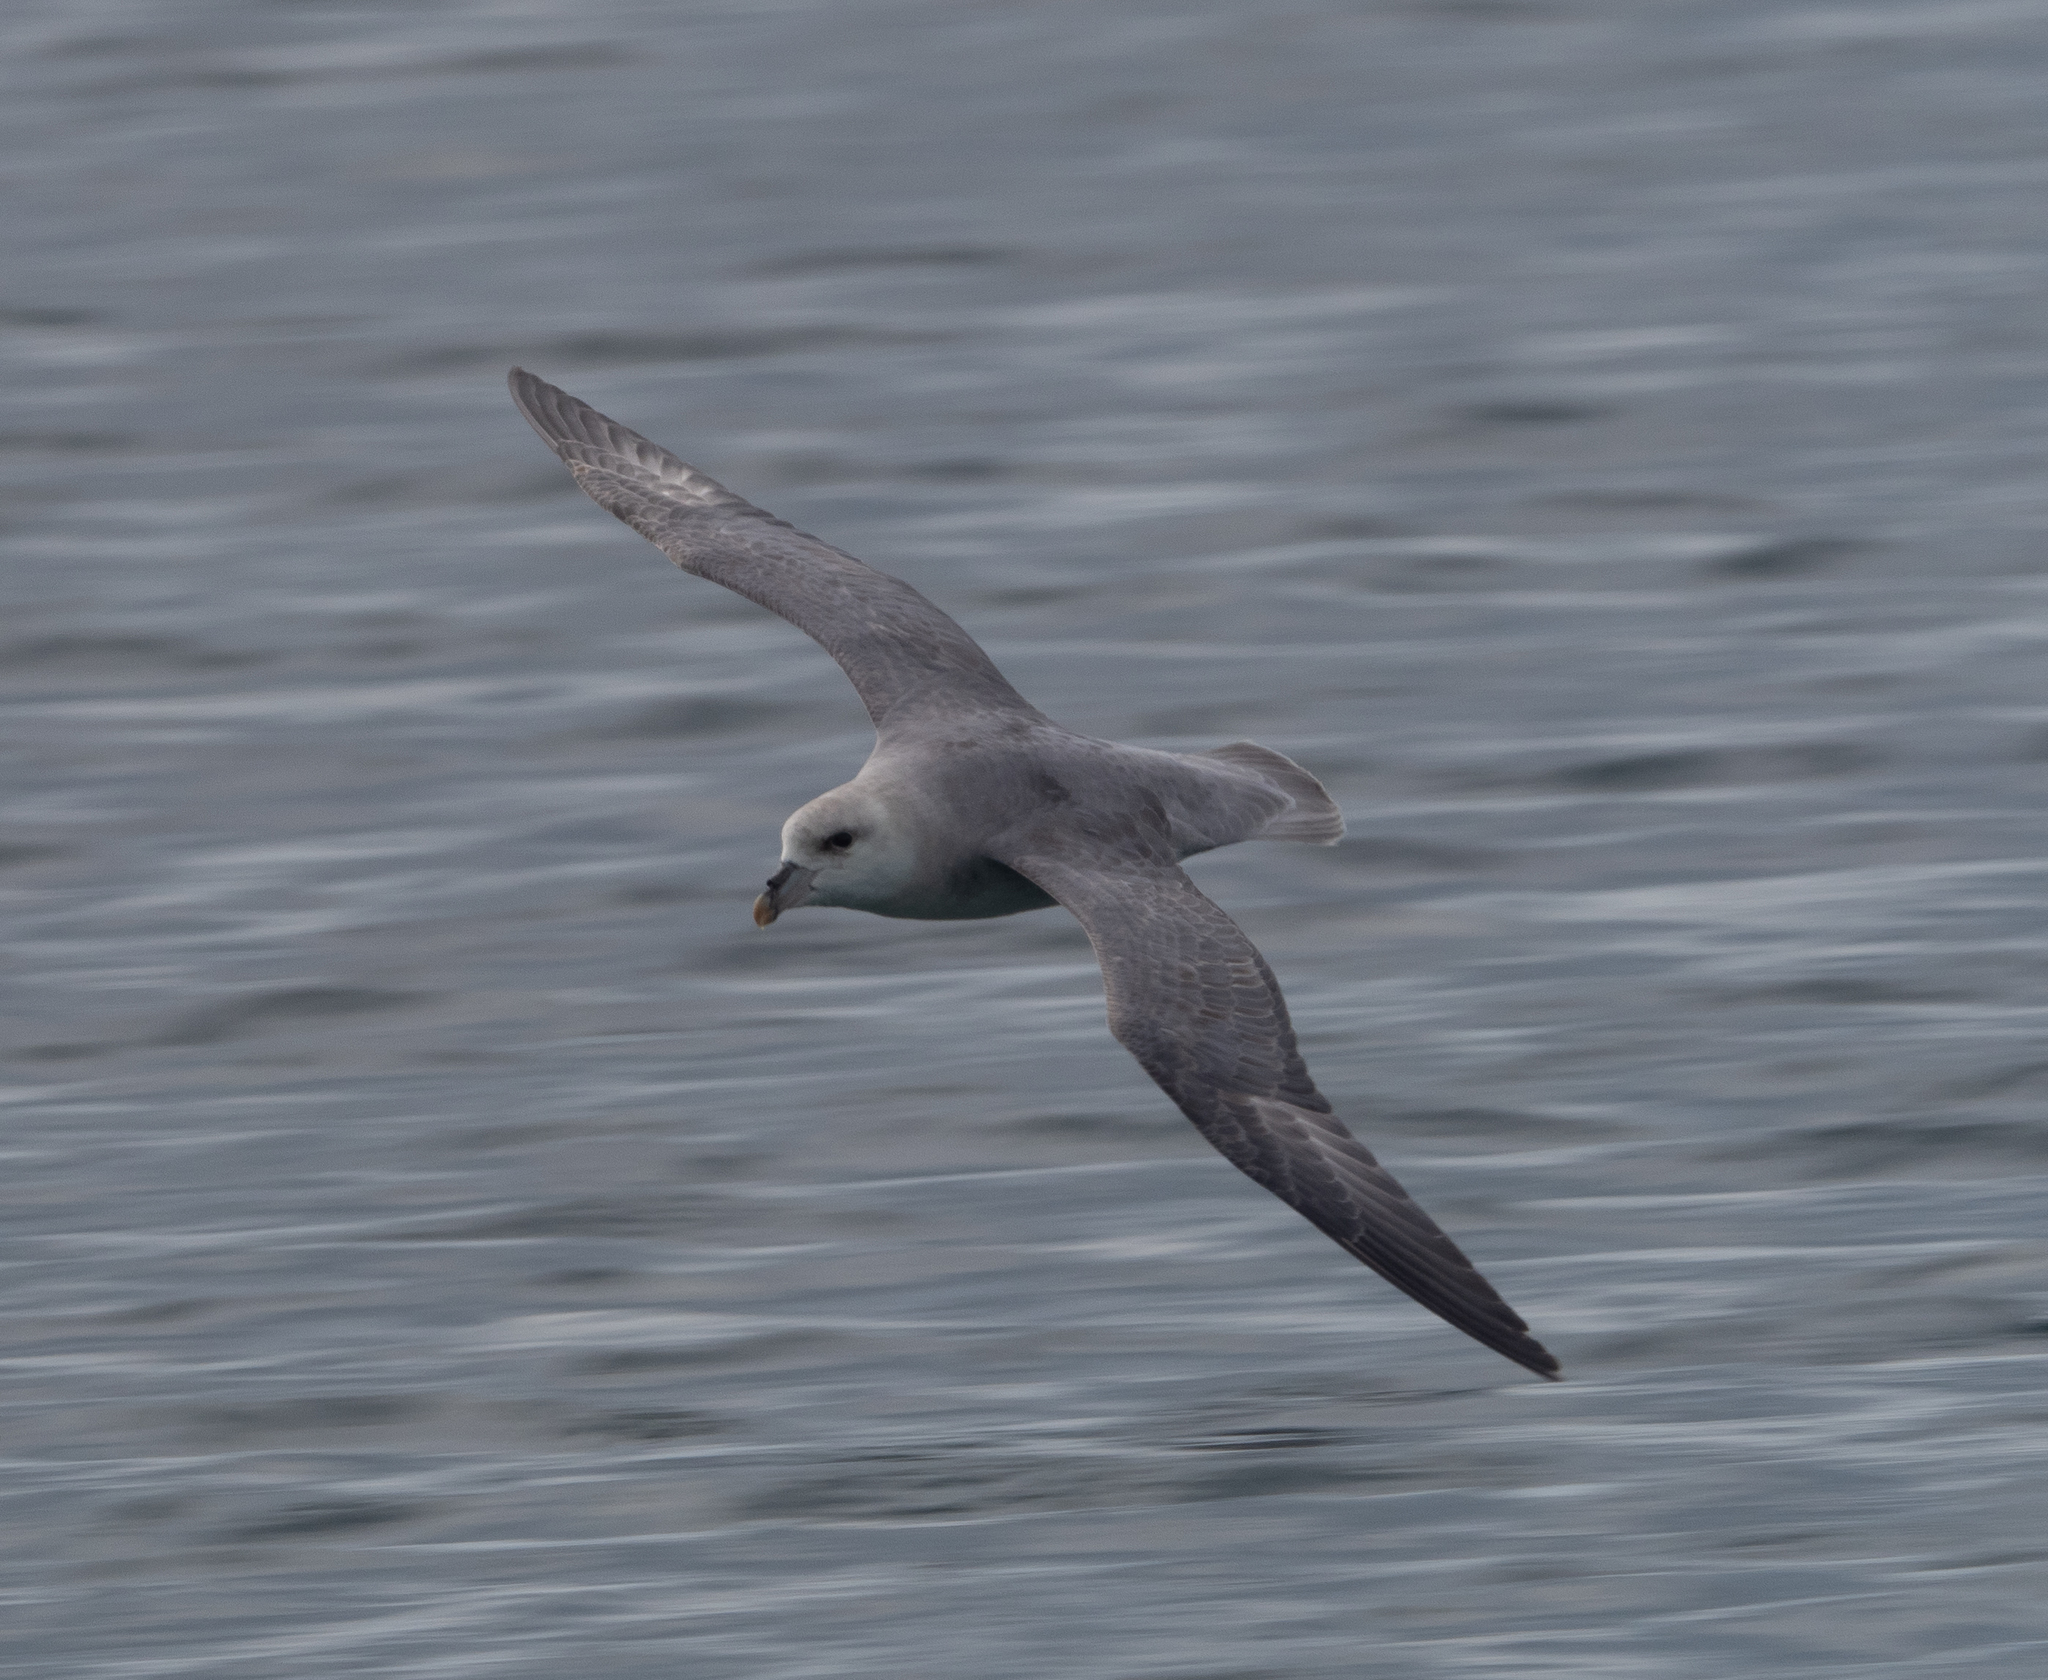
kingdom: Animalia
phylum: Chordata
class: Aves
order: Procellariiformes
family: Procellariidae
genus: Fulmarus
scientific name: Fulmarus glacialis
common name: Northern fulmar
